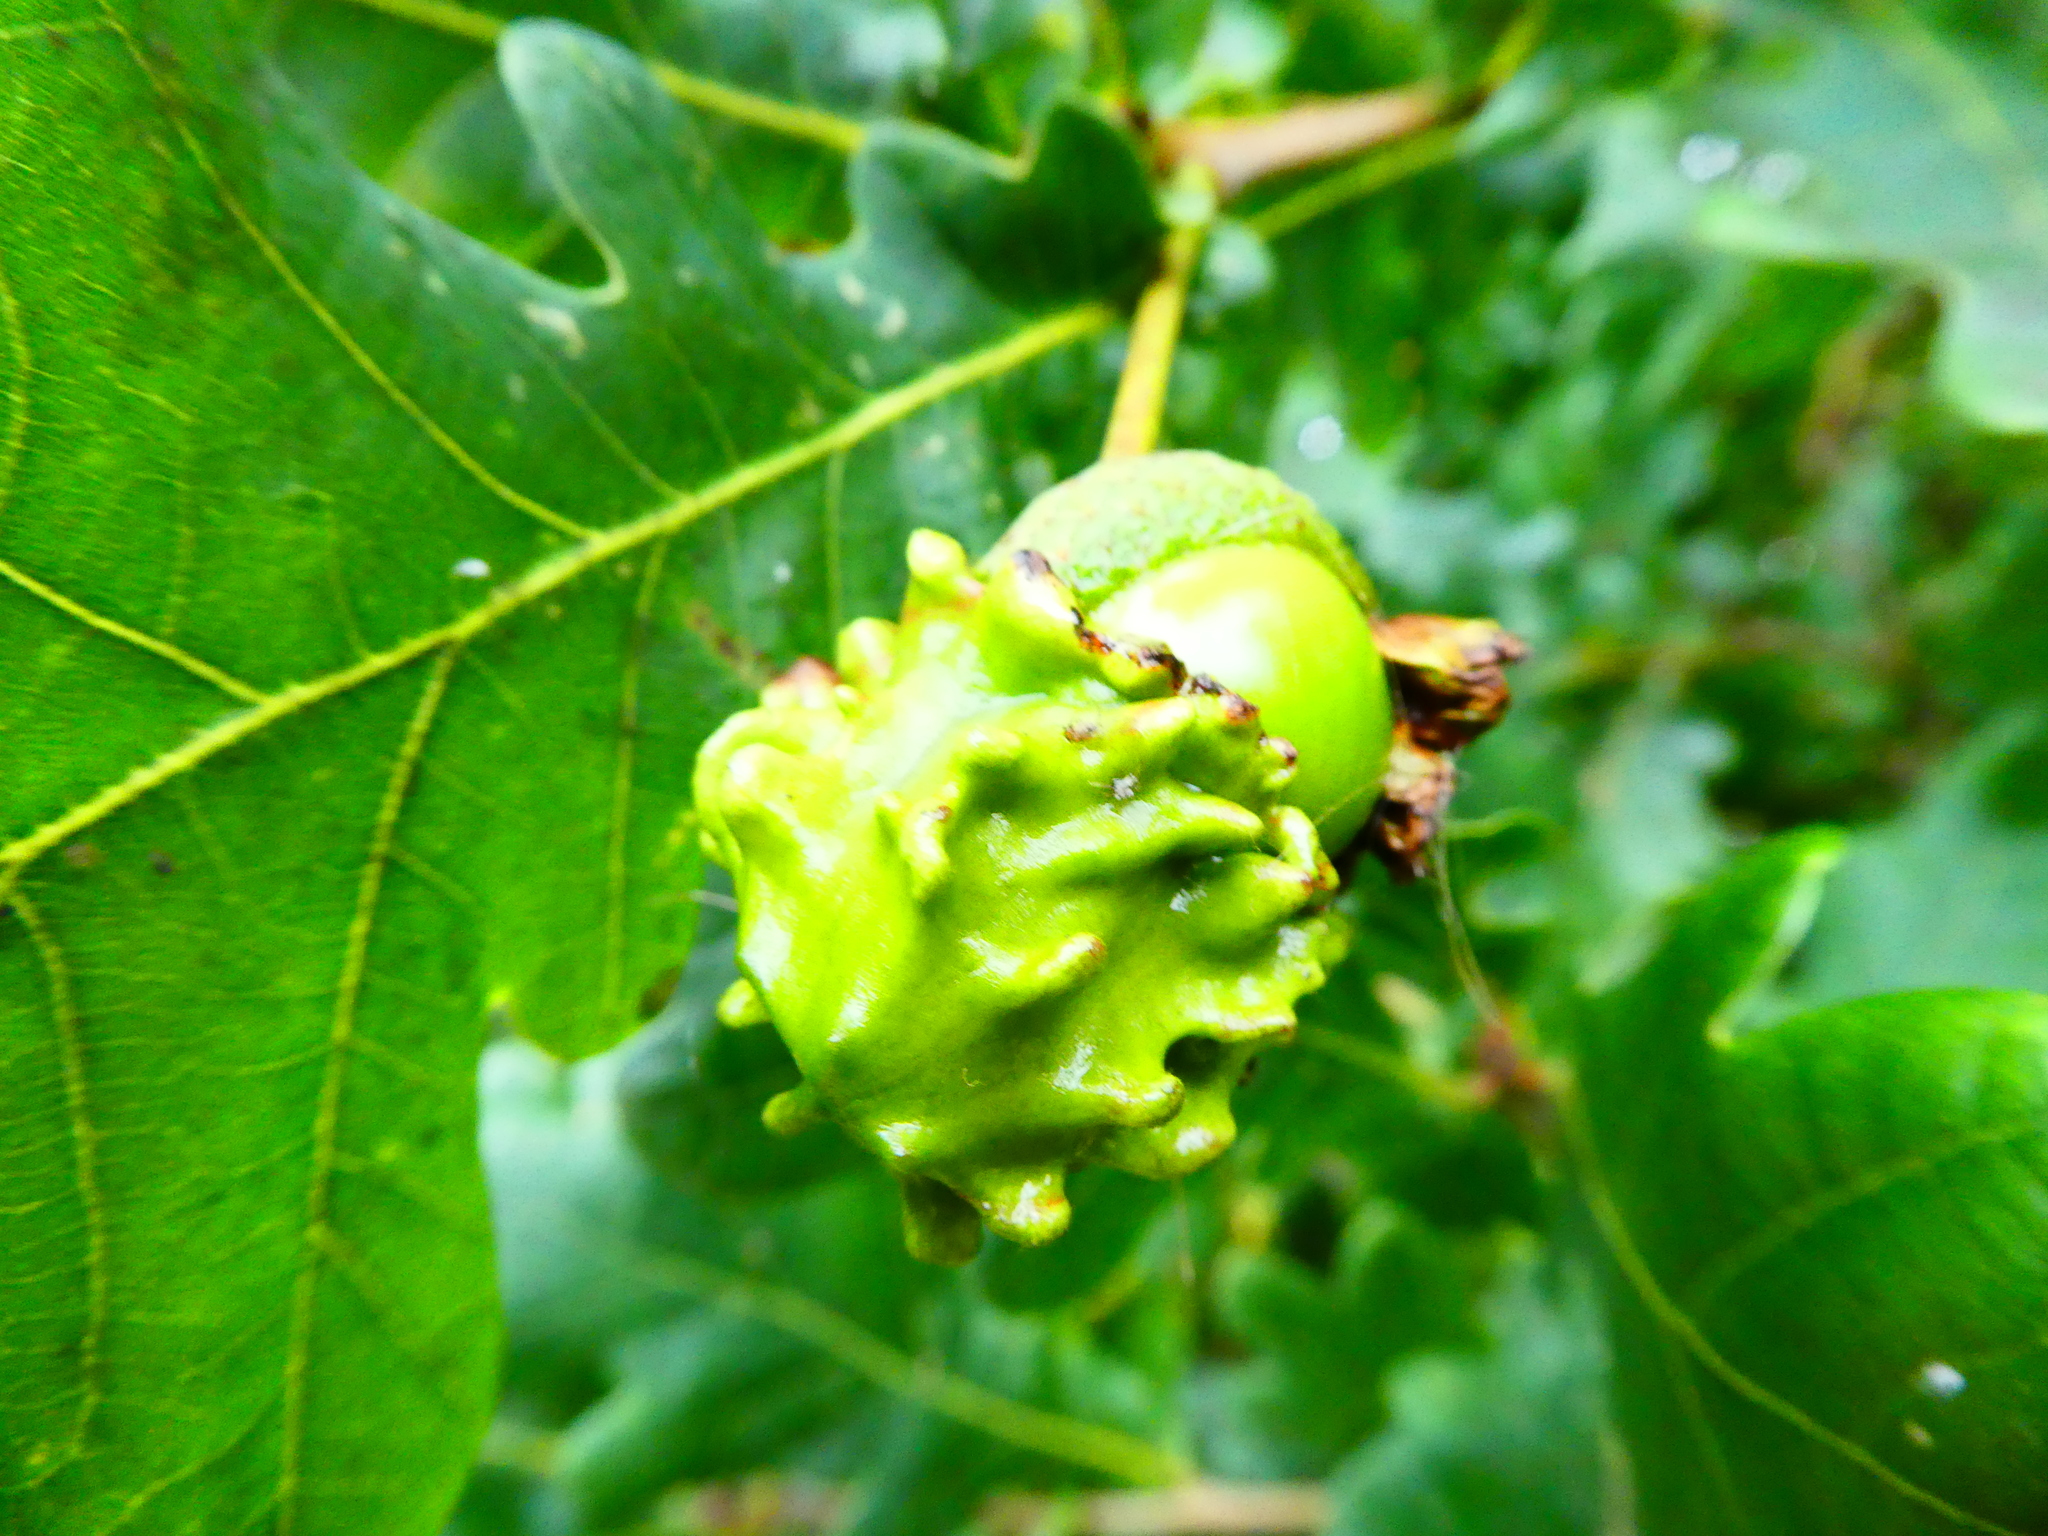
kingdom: Animalia
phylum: Arthropoda
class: Insecta
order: Hymenoptera
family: Cynipidae
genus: Andricus
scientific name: Andricus quercuscalicis
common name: Knopper gall
